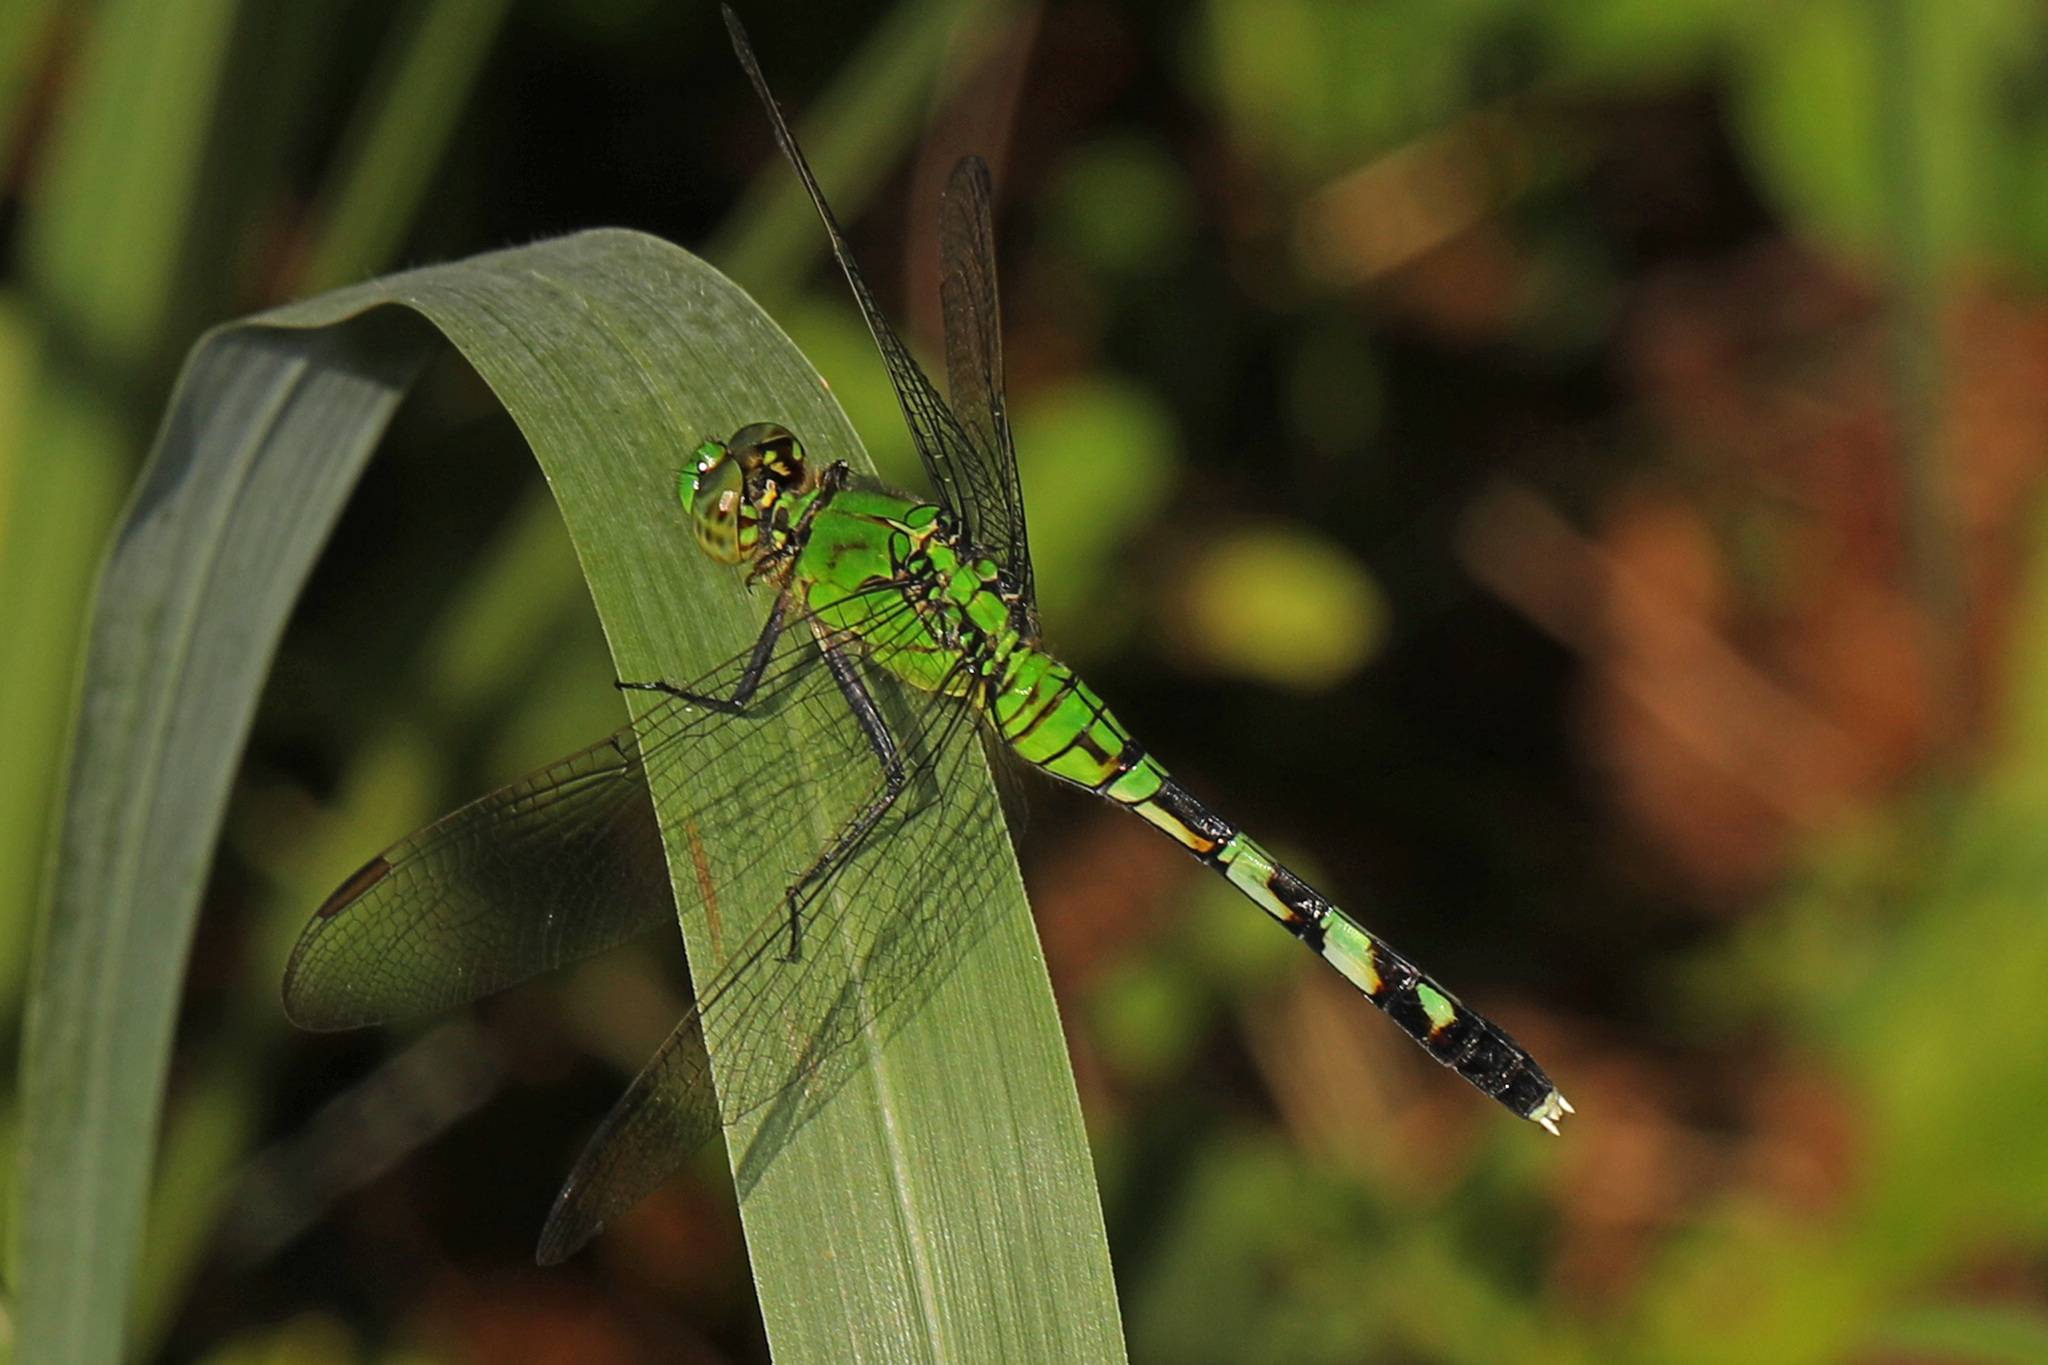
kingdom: Animalia
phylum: Arthropoda
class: Insecta
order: Odonata
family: Libellulidae
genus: Erythemis
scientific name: Erythemis simplicicollis
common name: Eastern pondhawk
